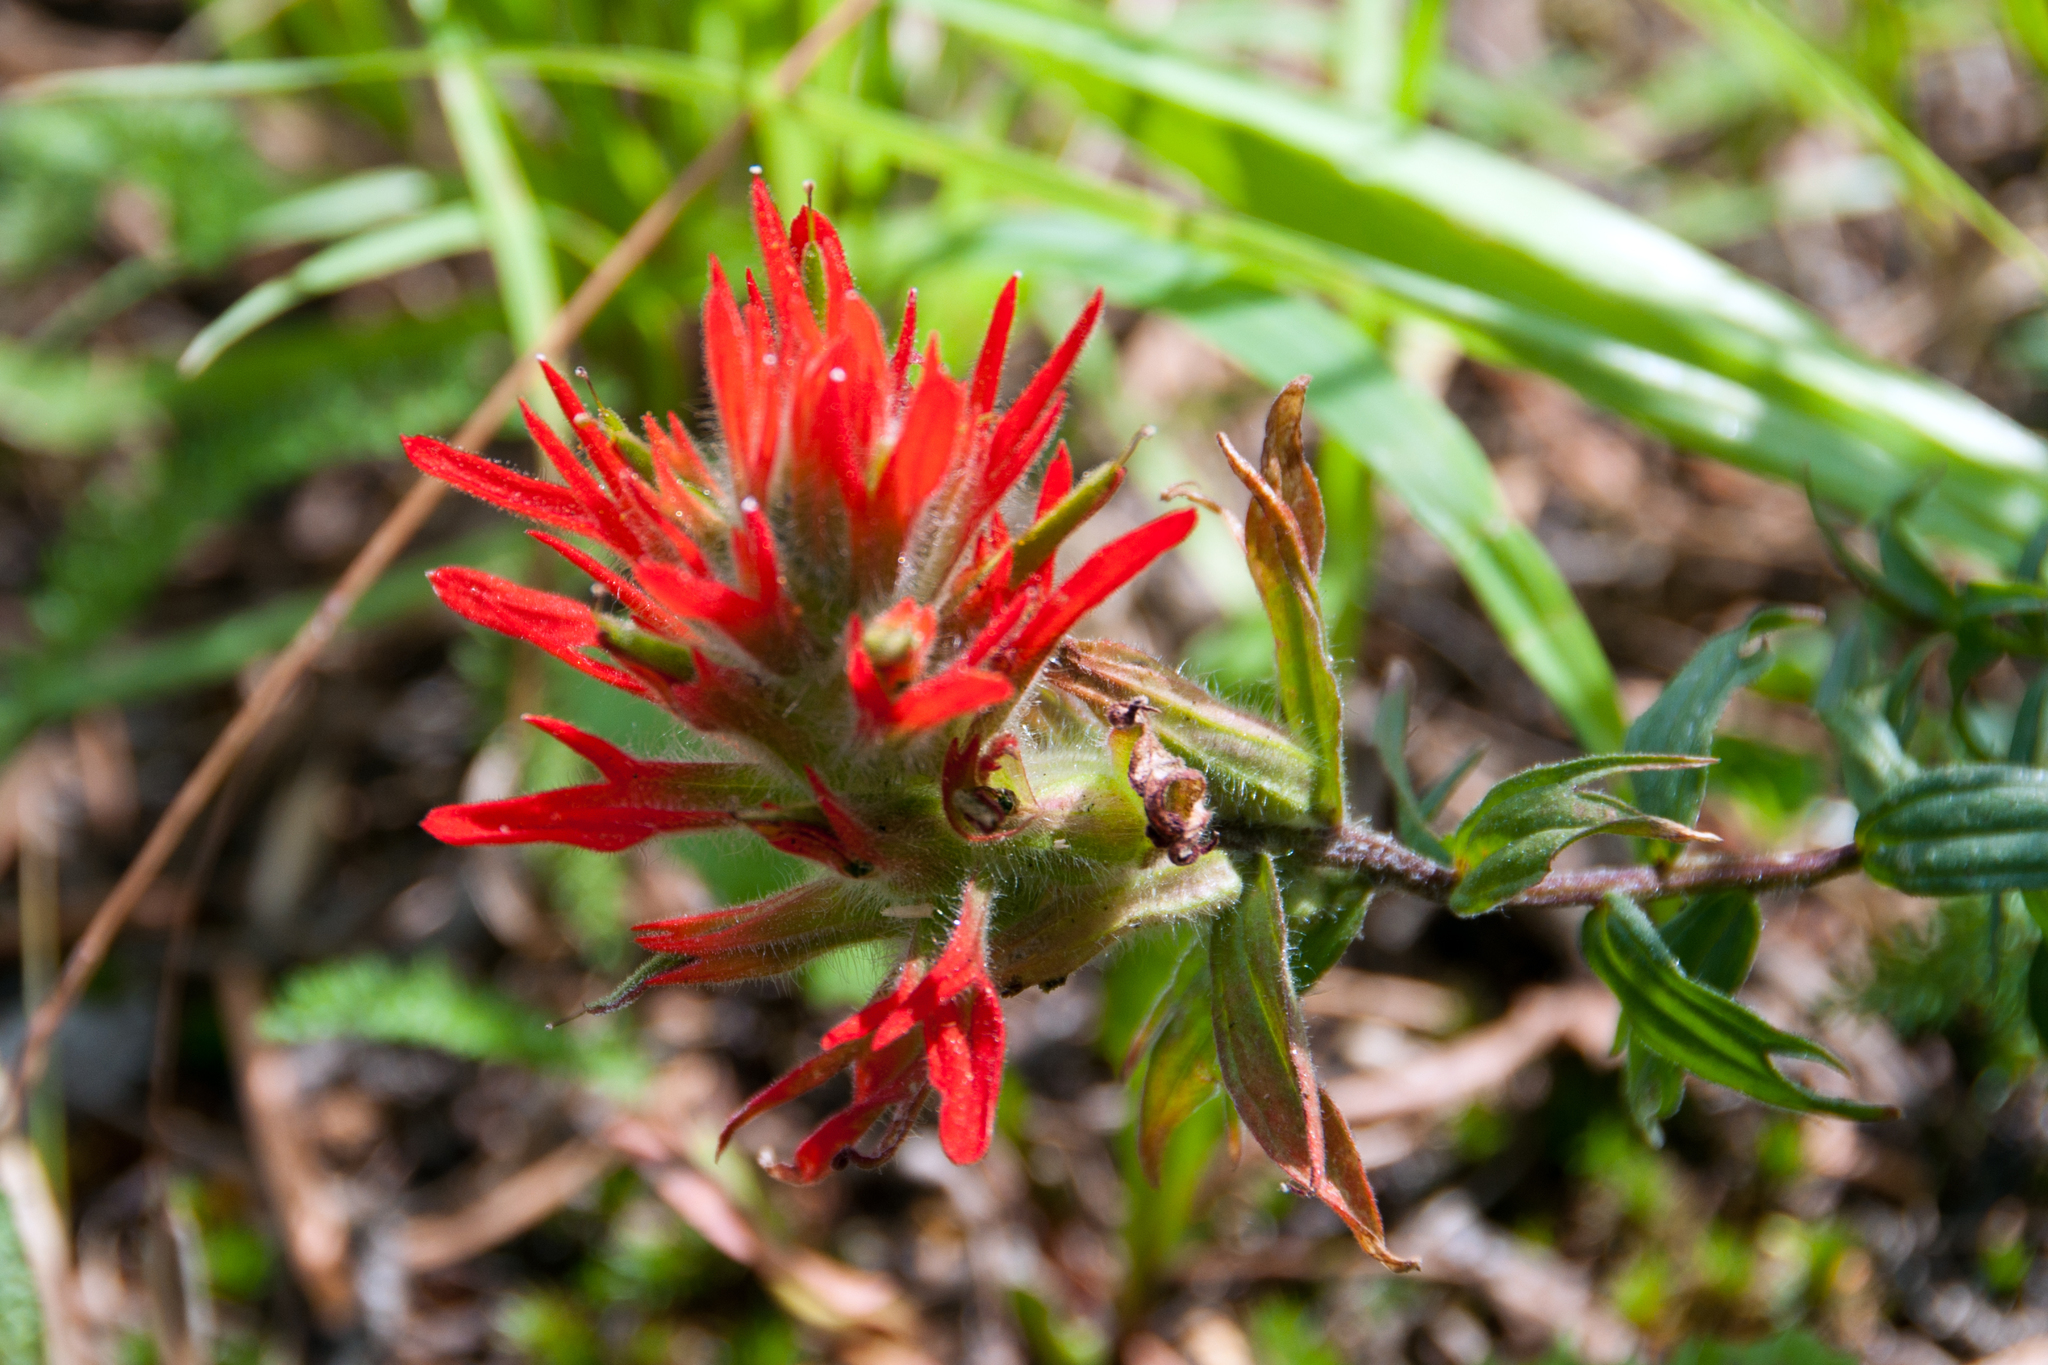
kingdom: Plantae
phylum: Tracheophyta
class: Magnoliopsida
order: Lamiales
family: Orobanchaceae
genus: Castilleja
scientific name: Castilleja miniata
